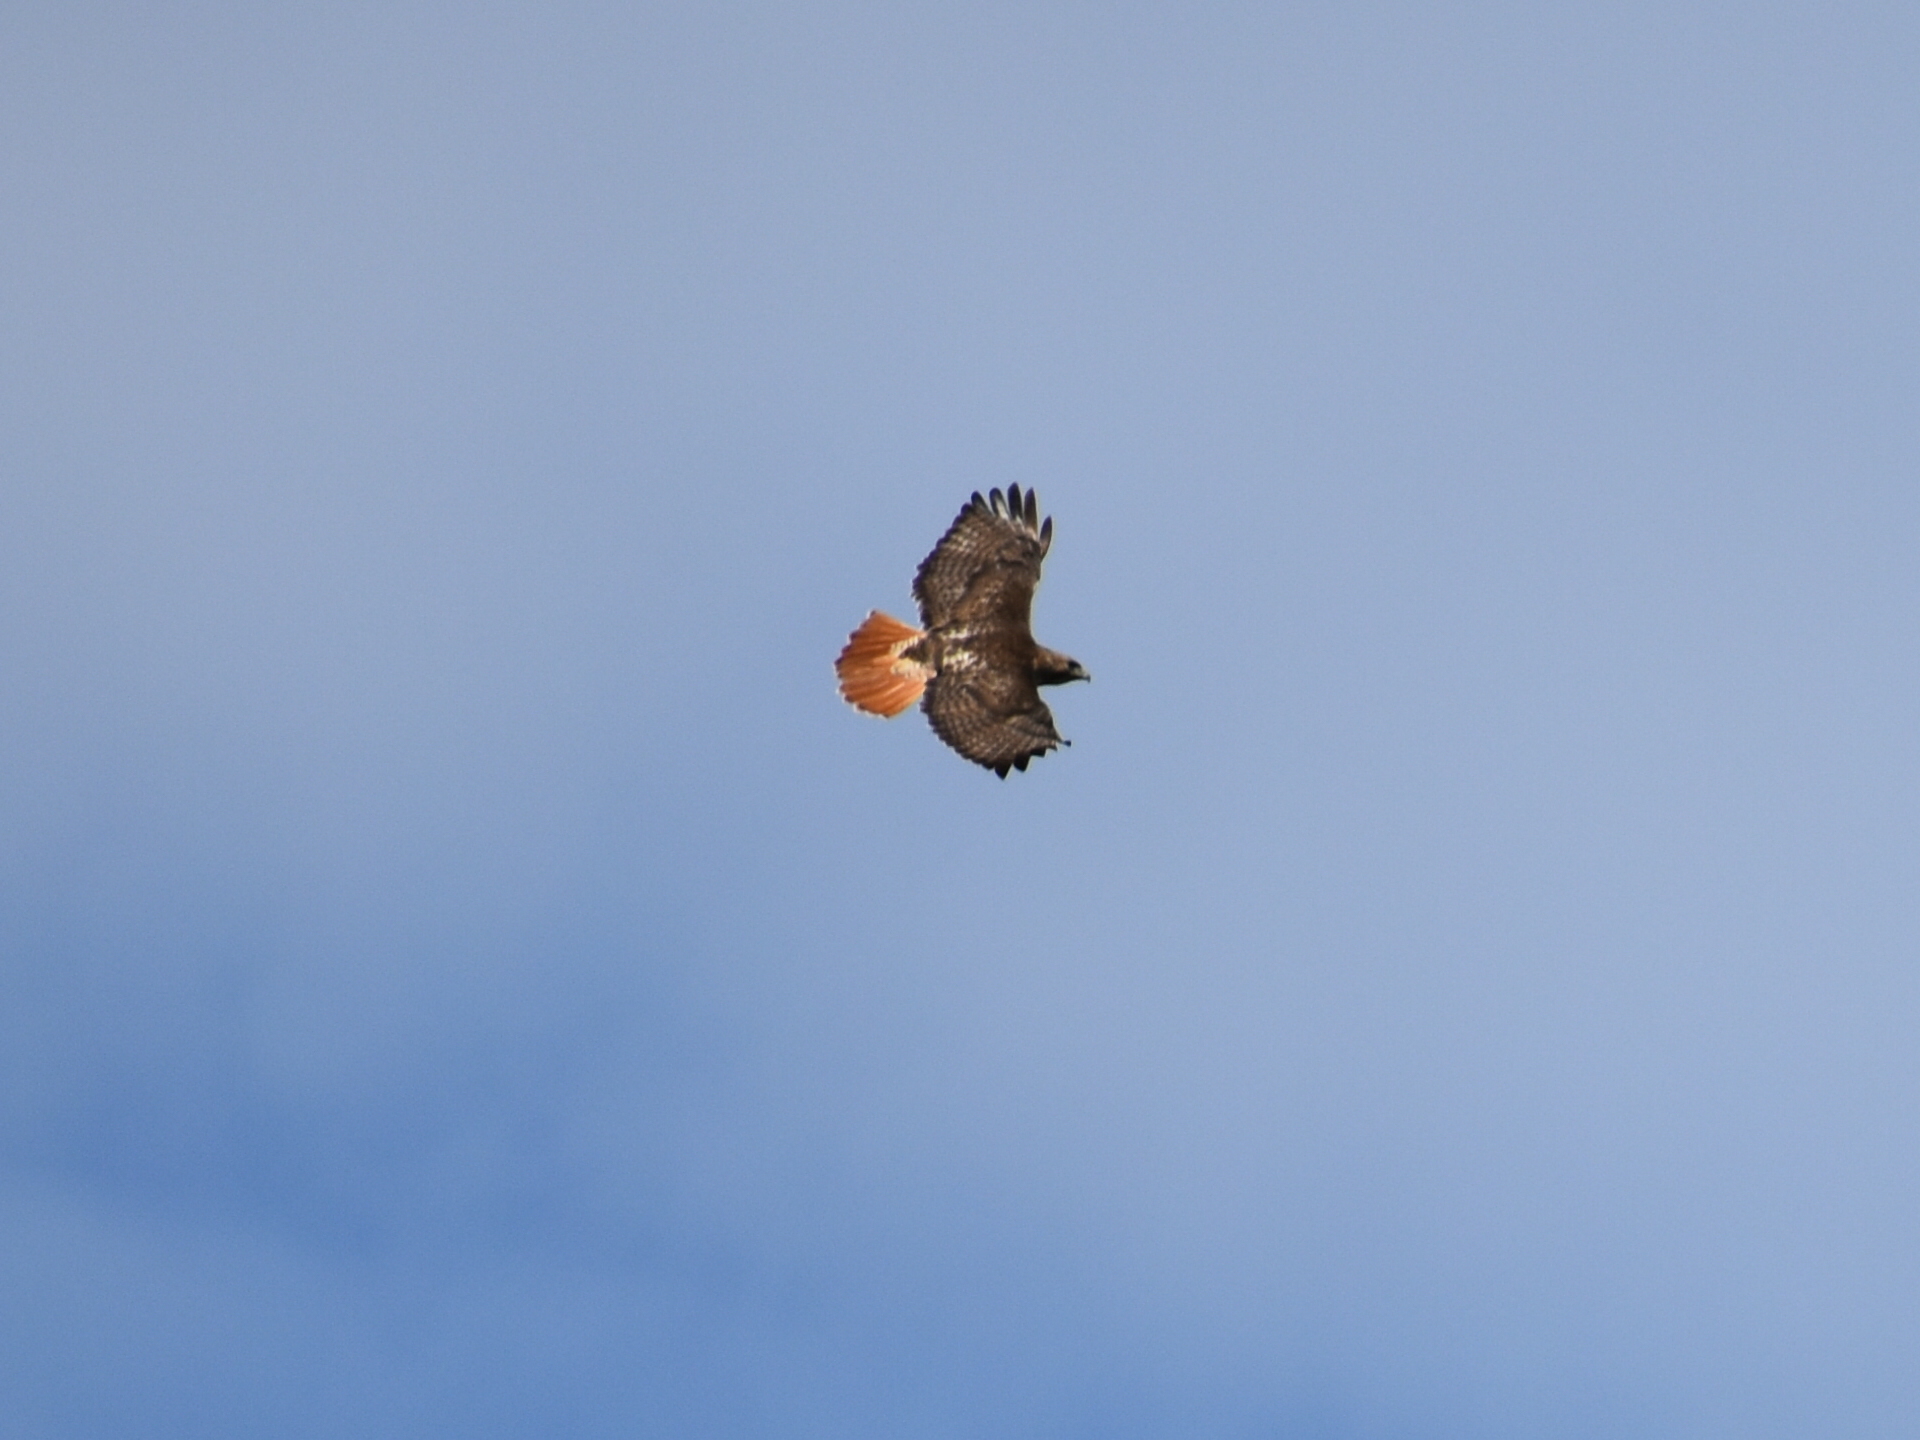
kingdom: Animalia
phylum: Chordata
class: Aves
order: Accipitriformes
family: Accipitridae
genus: Buteo
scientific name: Buteo jamaicensis
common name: Red-tailed hawk
